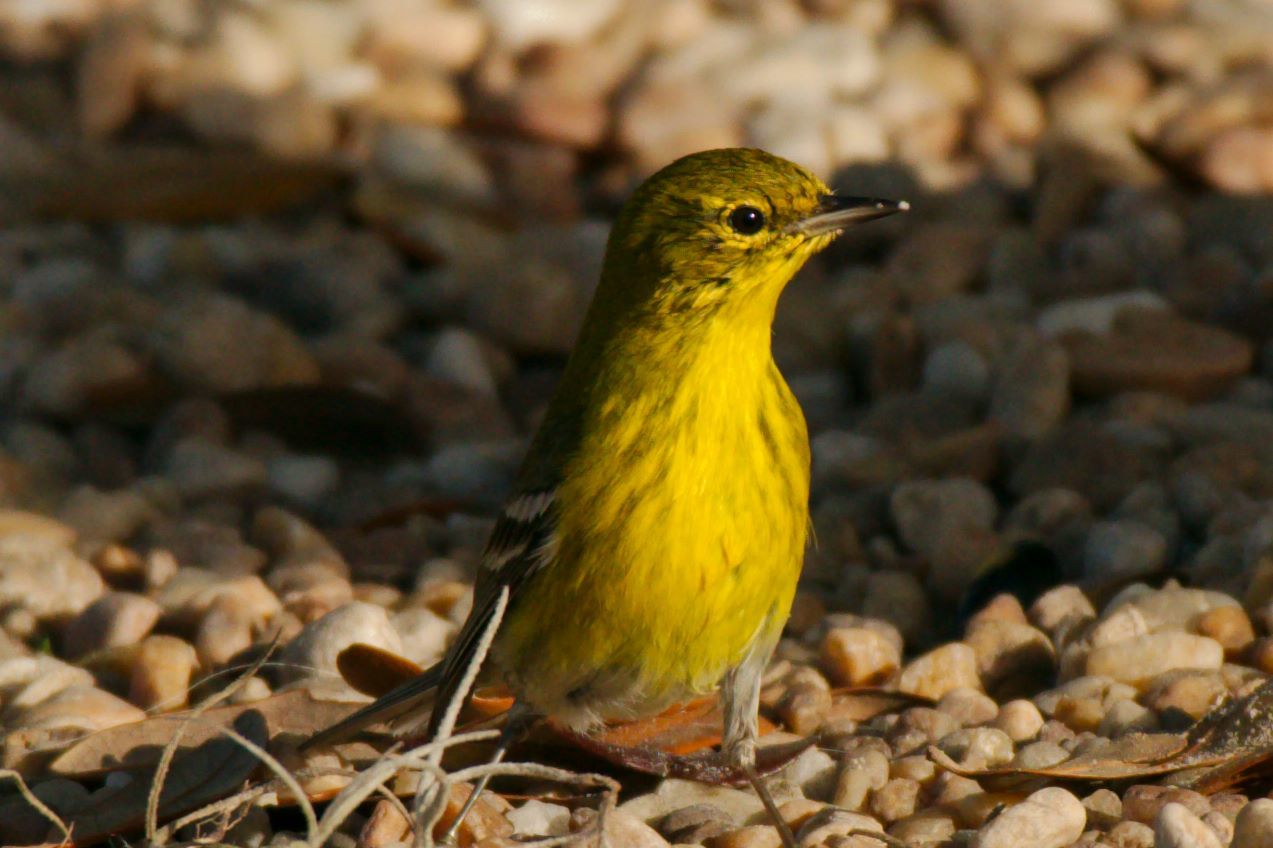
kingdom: Animalia
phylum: Chordata
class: Aves
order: Passeriformes
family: Parulidae
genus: Setophaga
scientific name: Setophaga pinus
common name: Pine warbler
